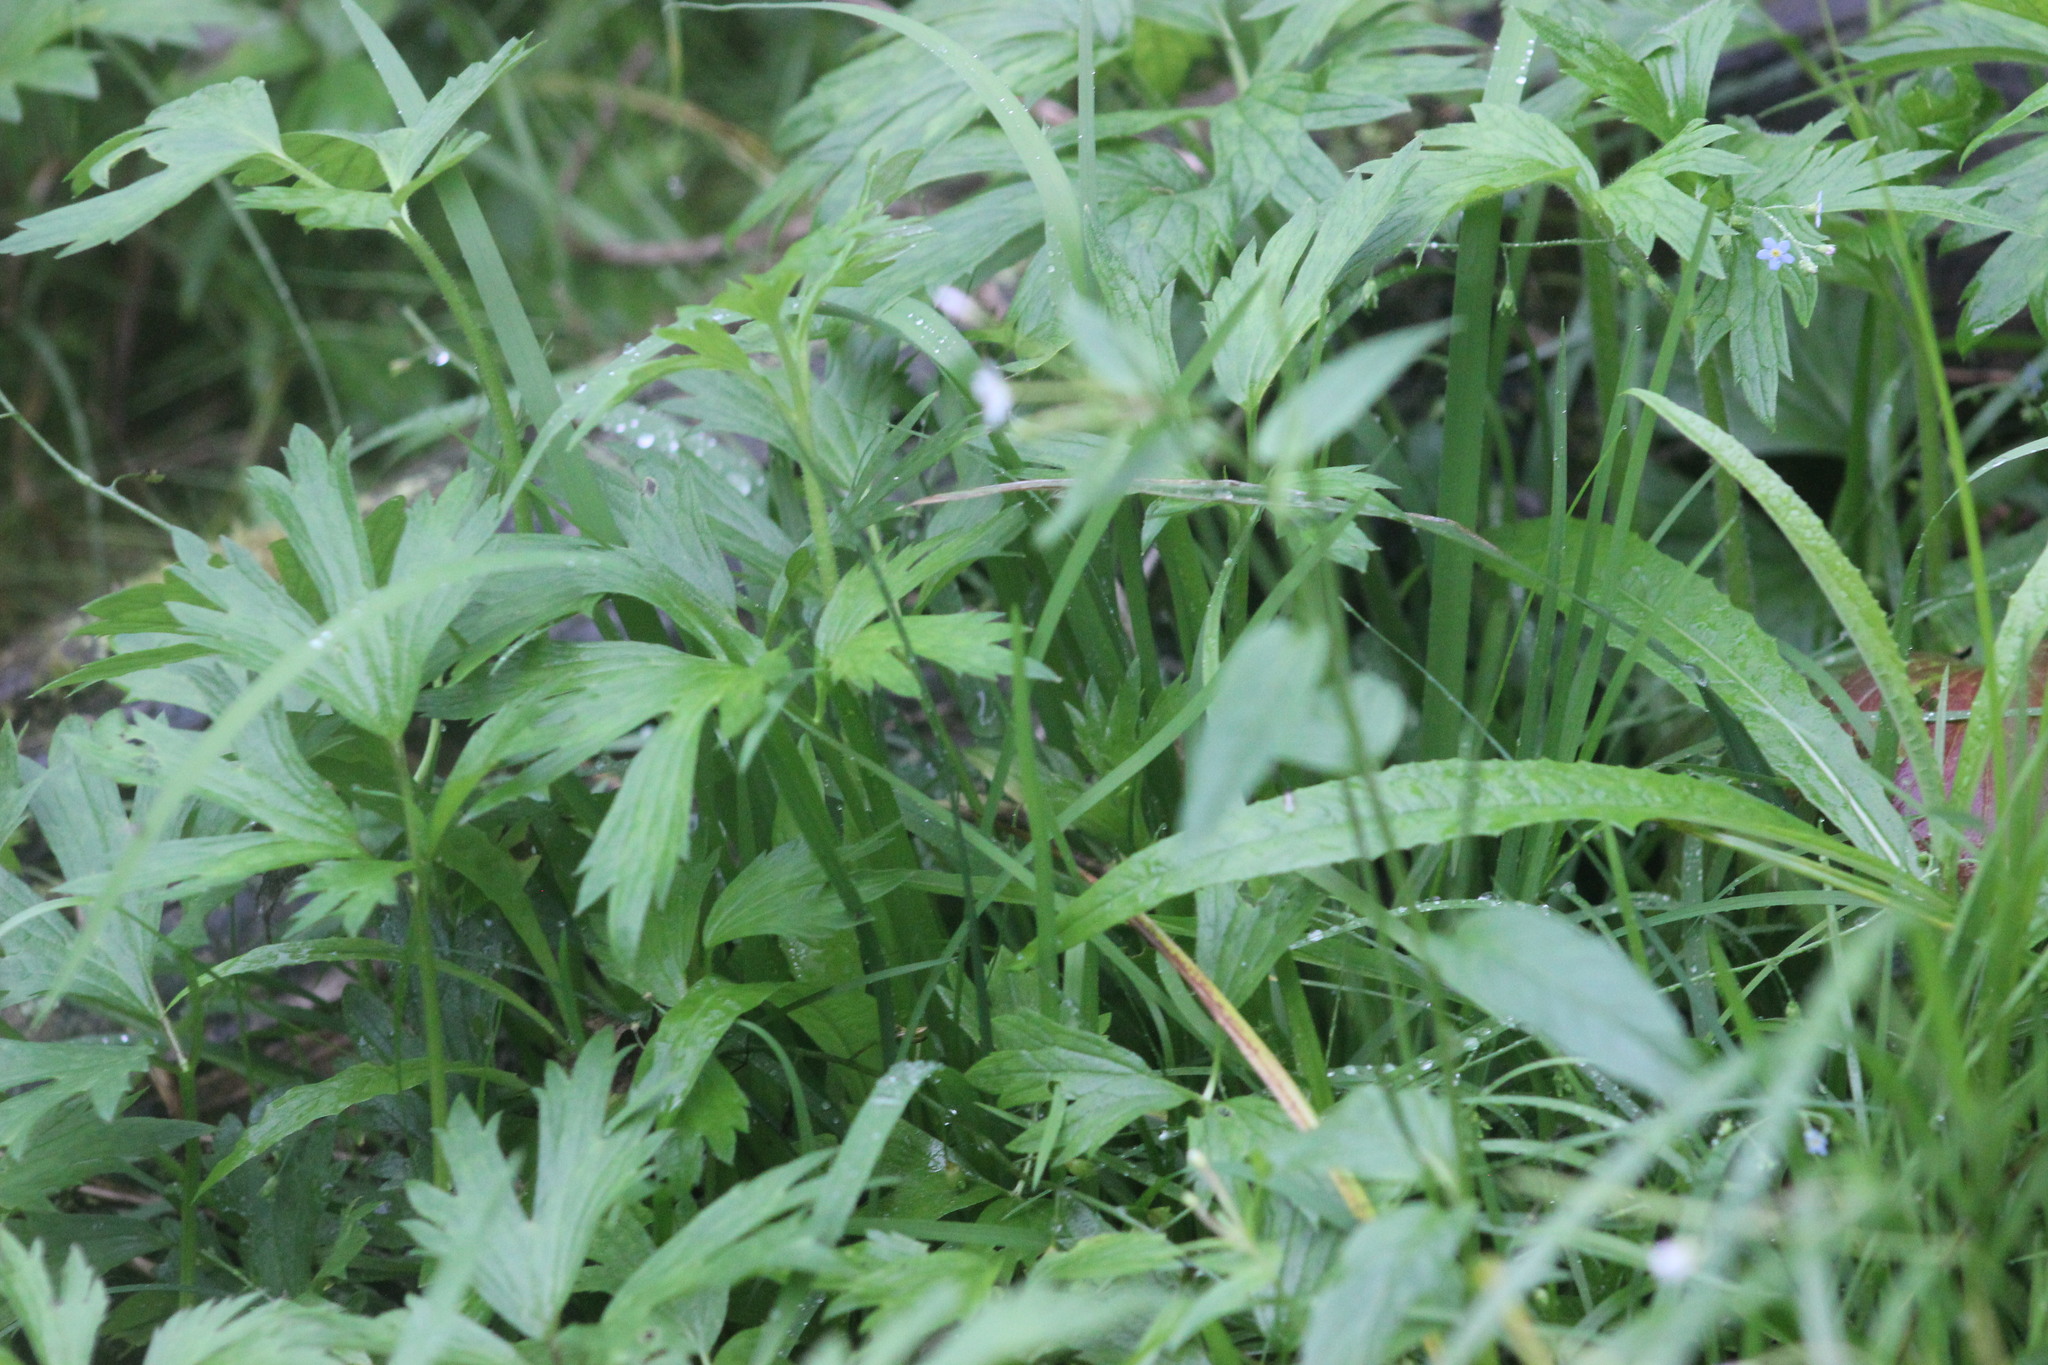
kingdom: Plantae
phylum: Tracheophyta
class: Magnoliopsida
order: Ranunculales
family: Ranunculaceae
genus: Ranunculus
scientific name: Ranunculus repens
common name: Creeping buttercup
